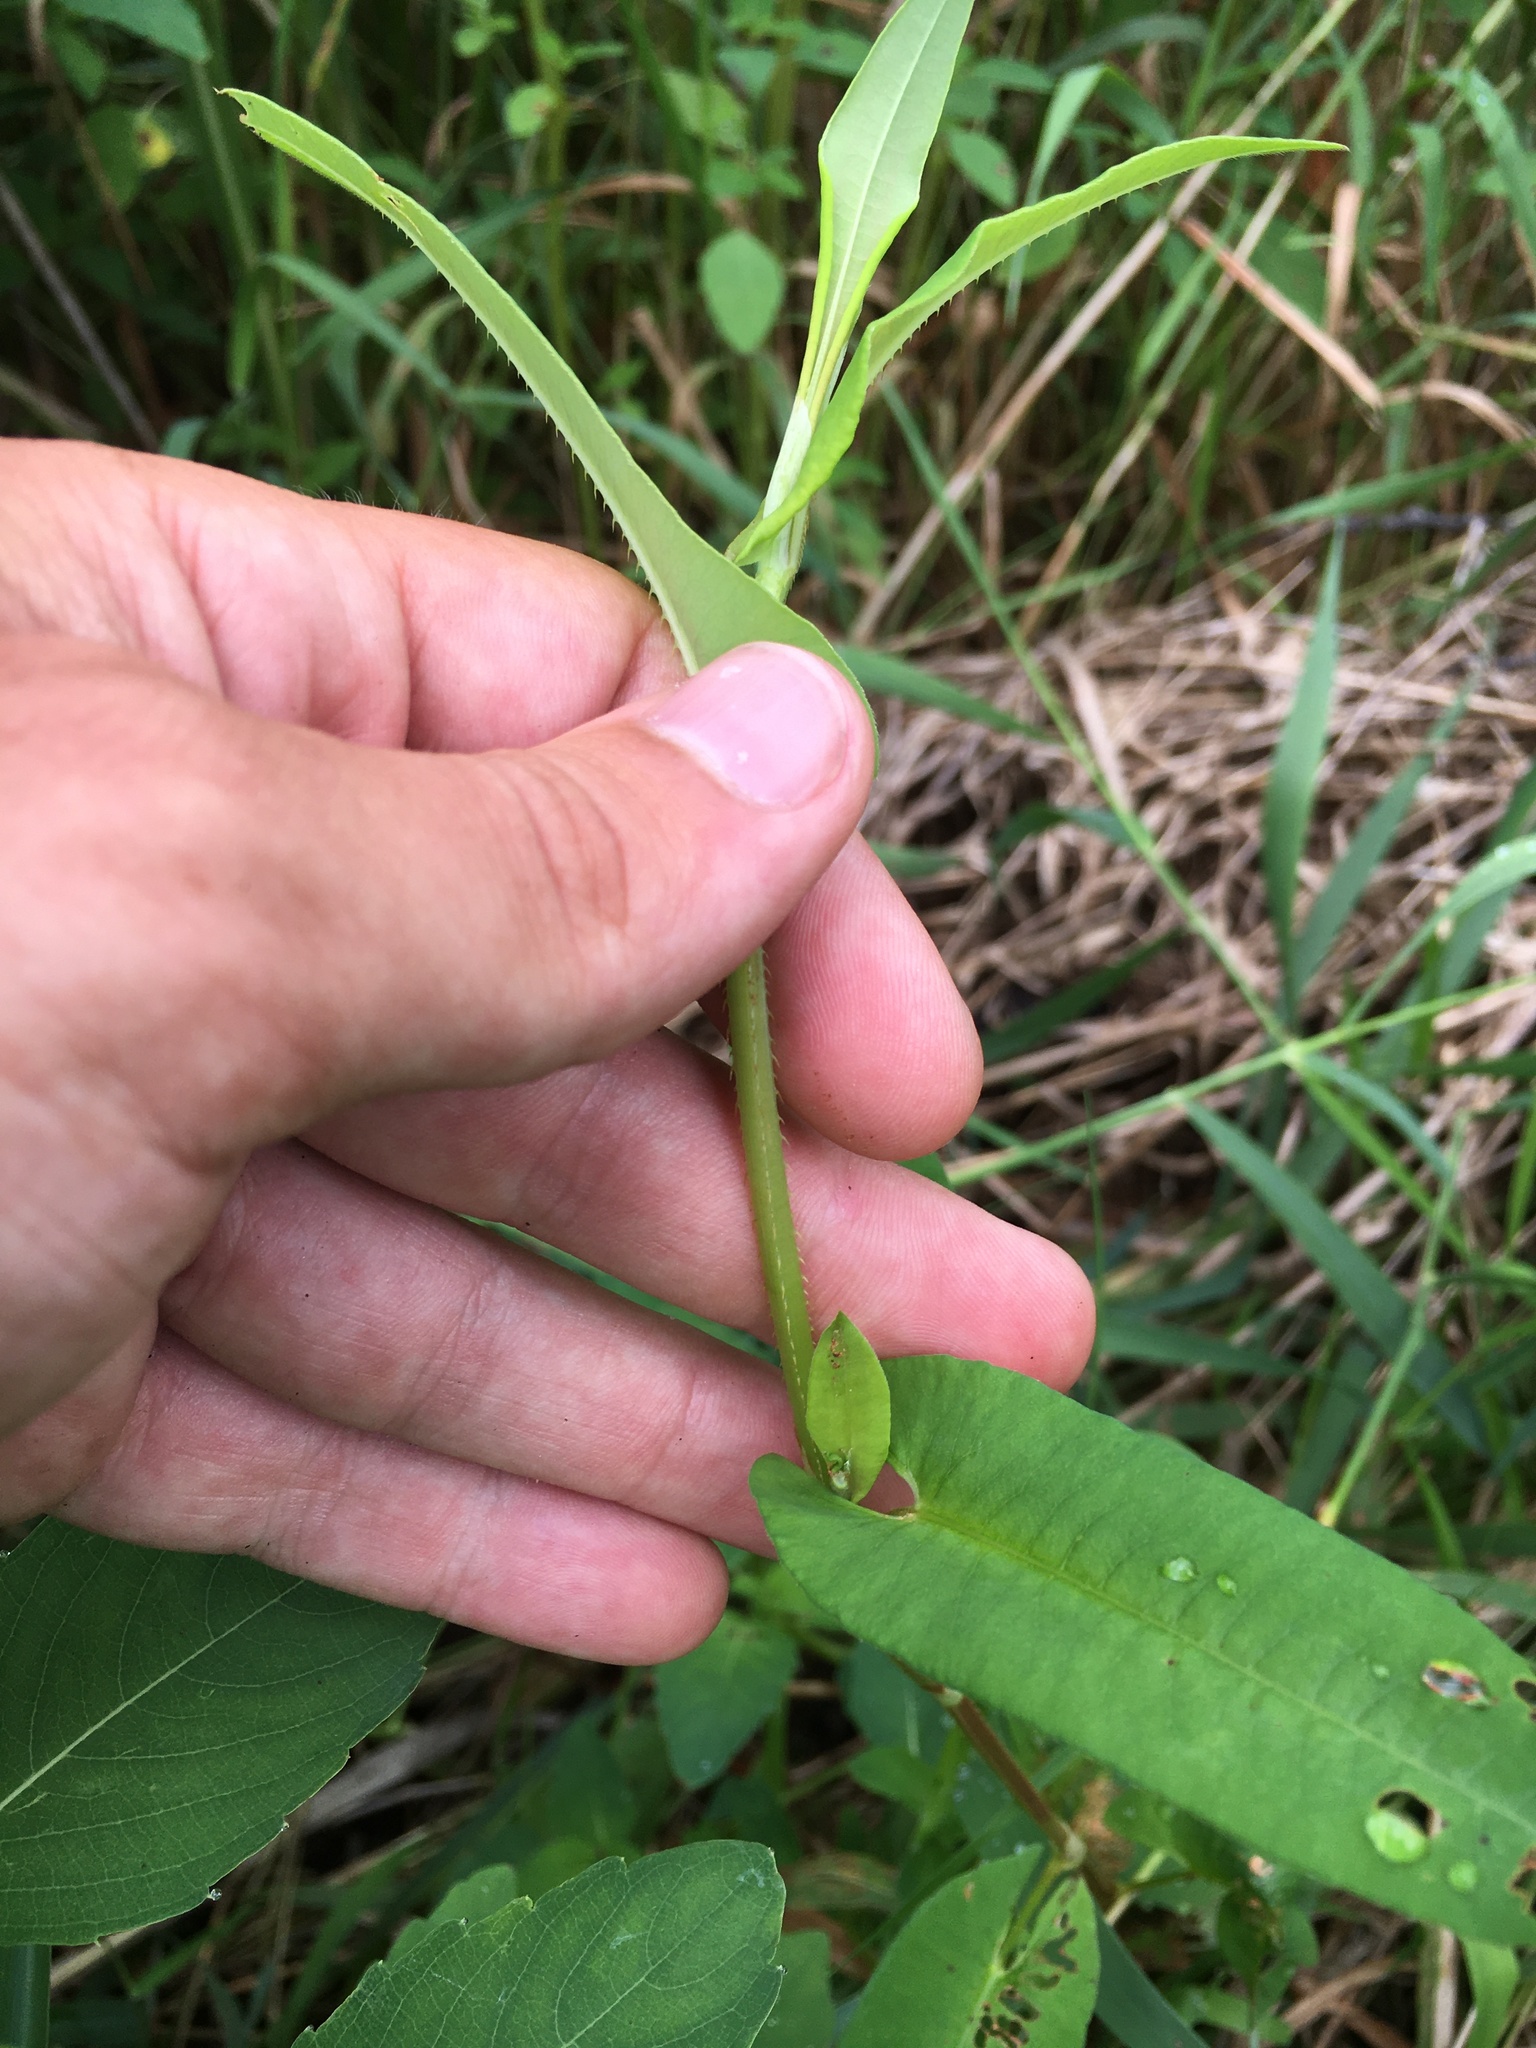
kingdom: Plantae
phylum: Tracheophyta
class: Magnoliopsida
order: Caryophyllales
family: Polygonaceae
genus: Persicaria
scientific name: Persicaria sagittata
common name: American tearthumb
